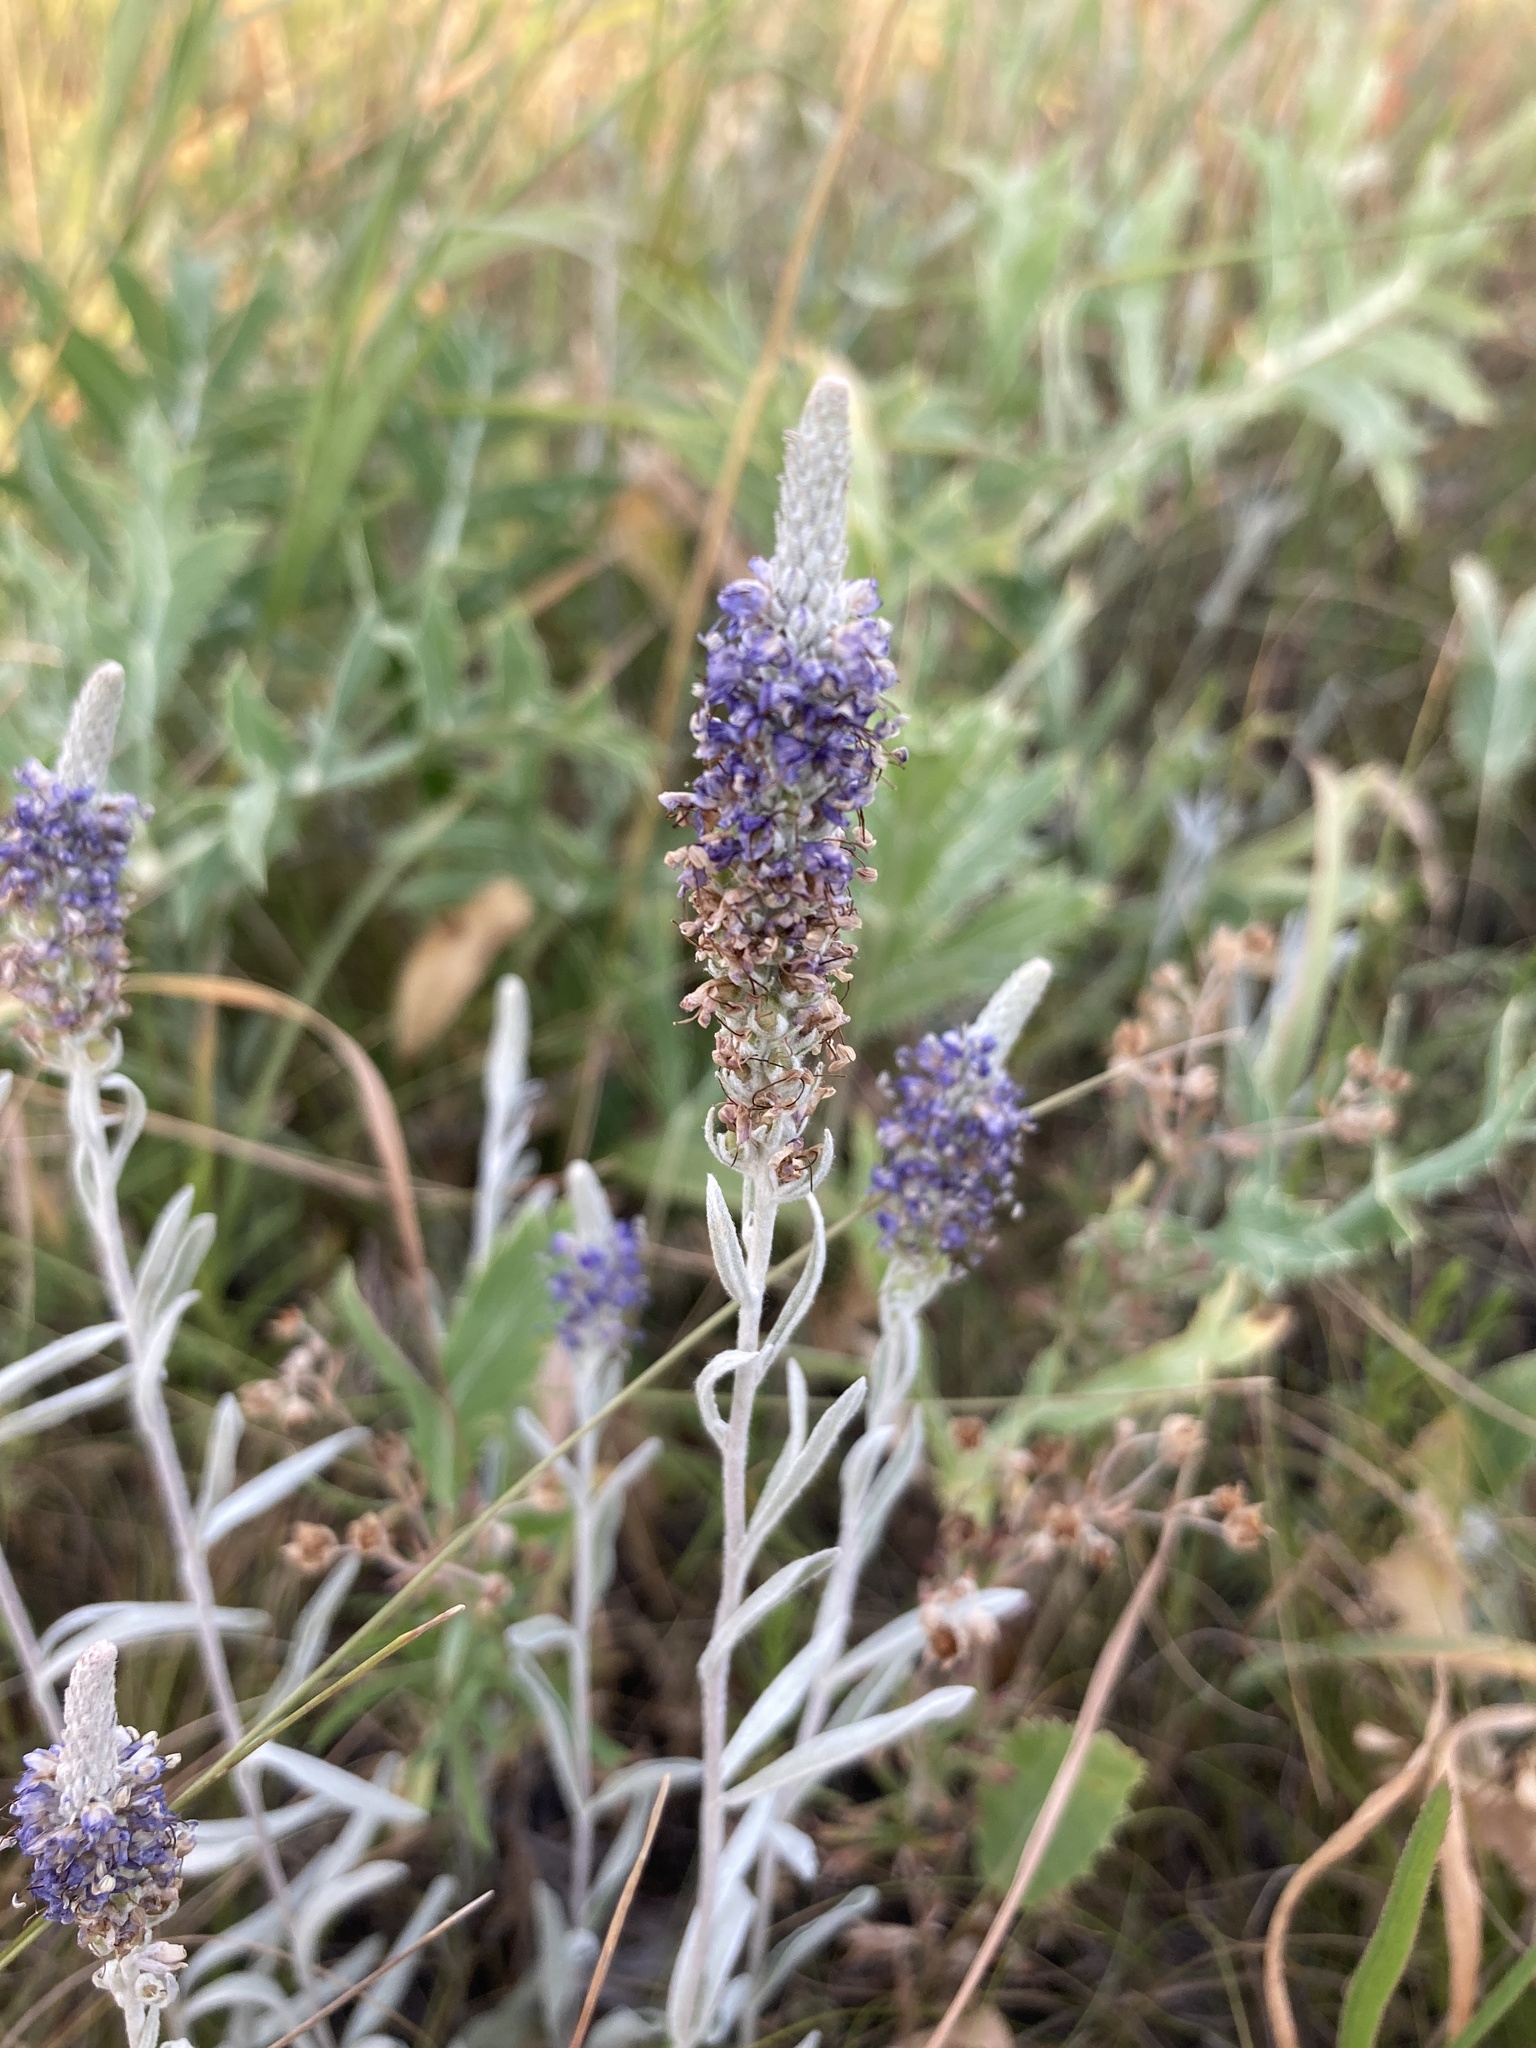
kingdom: Plantae
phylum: Tracheophyta
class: Magnoliopsida
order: Lamiales
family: Plantaginaceae
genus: Veronica
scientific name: Veronica incana
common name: Silver speedwell
